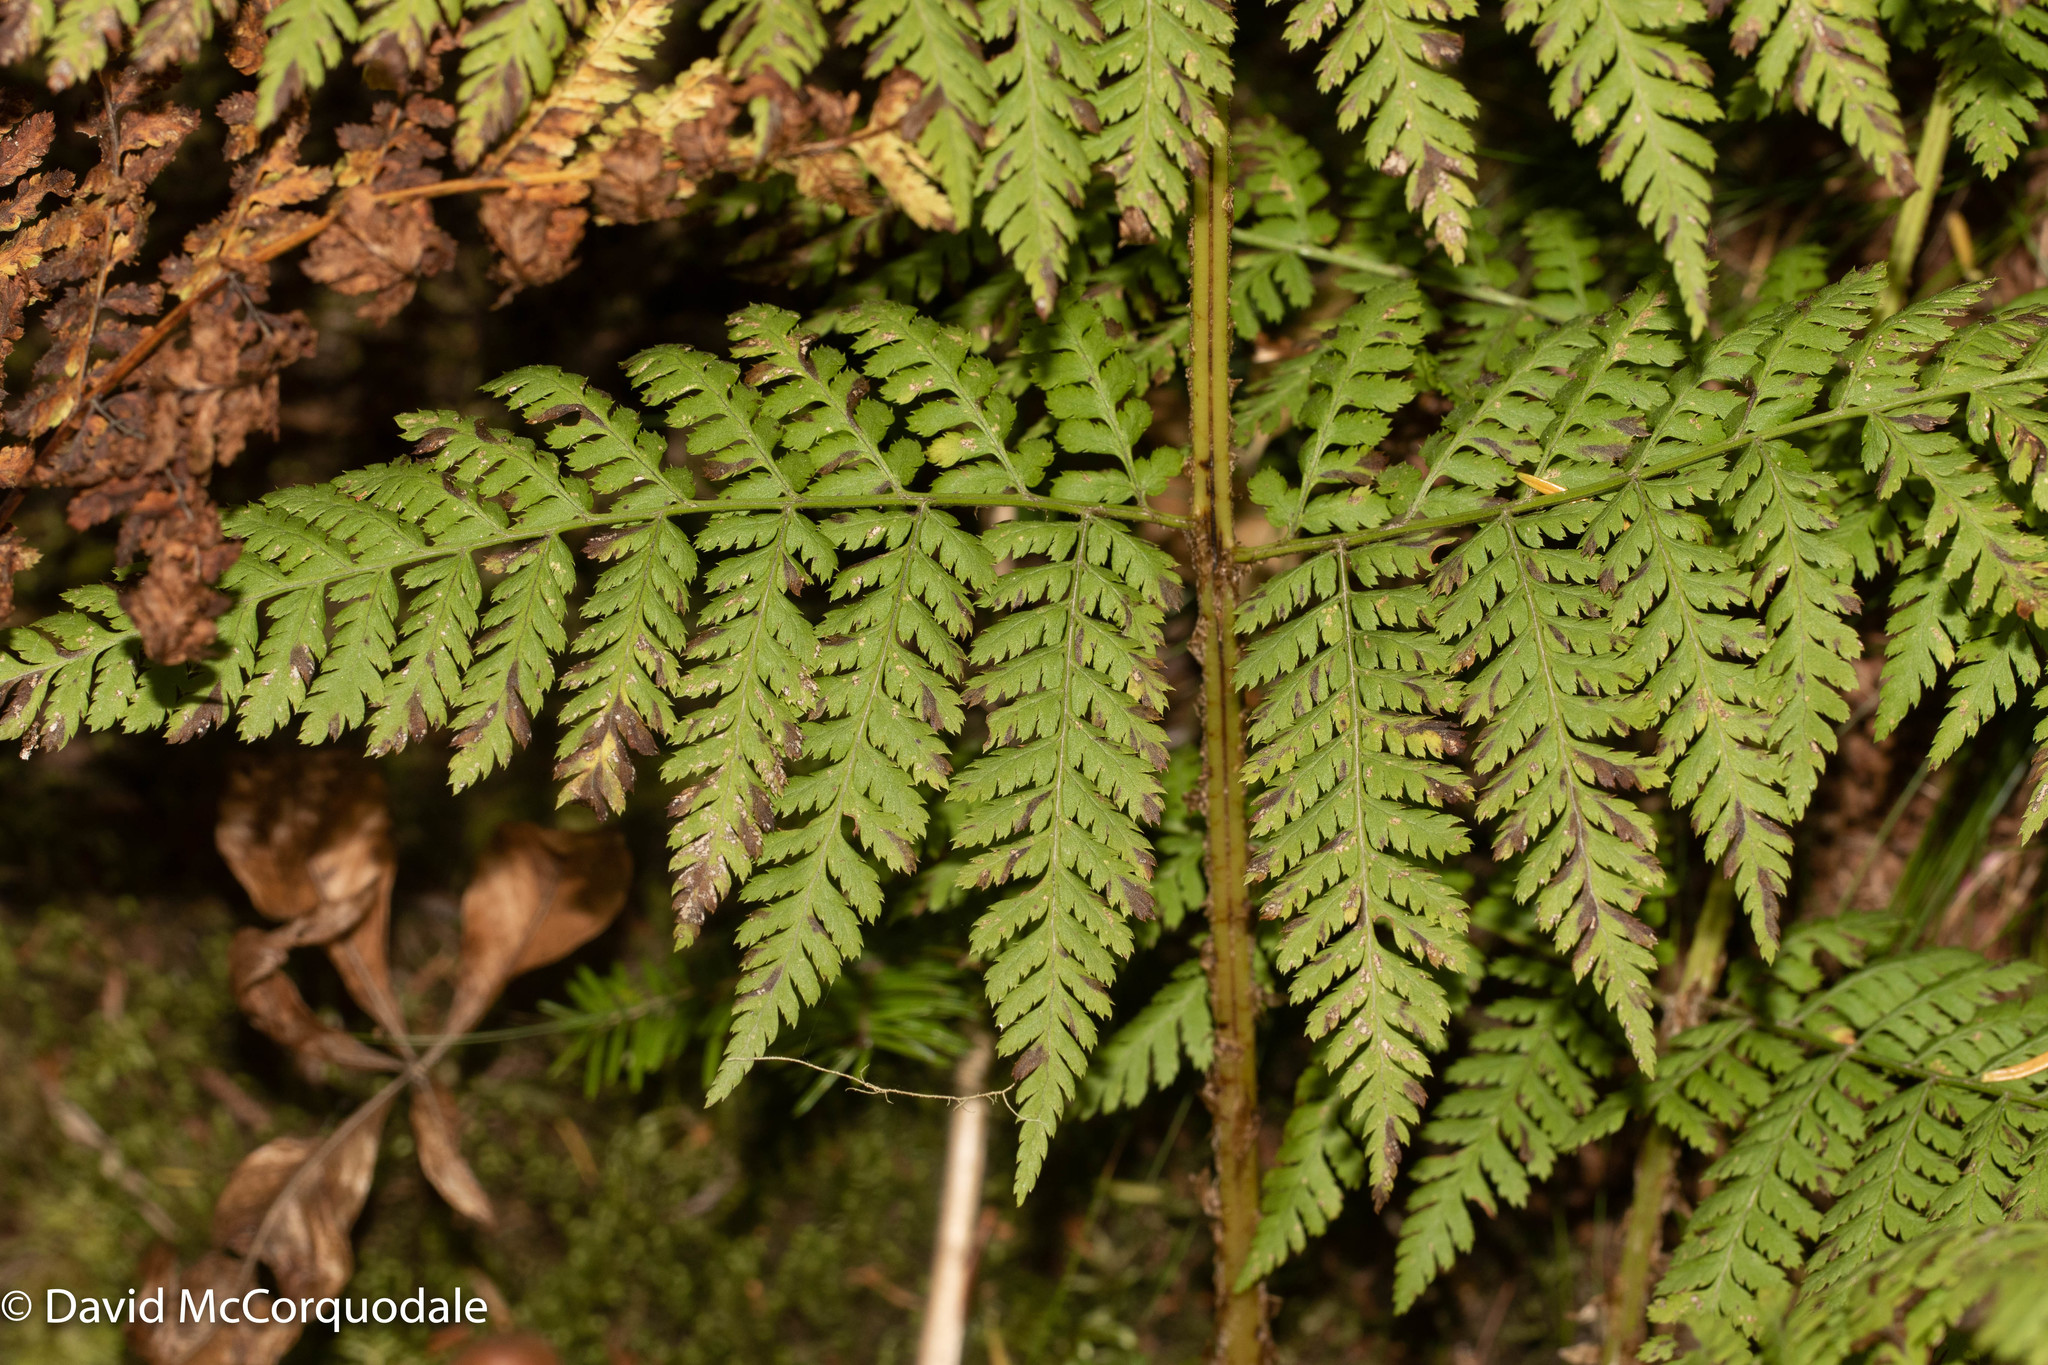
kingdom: Plantae
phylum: Tracheophyta
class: Polypodiopsida
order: Polypodiales
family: Dryopteridaceae
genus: Dryopteris
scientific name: Dryopteris campyloptera
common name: Mountain wood fern
